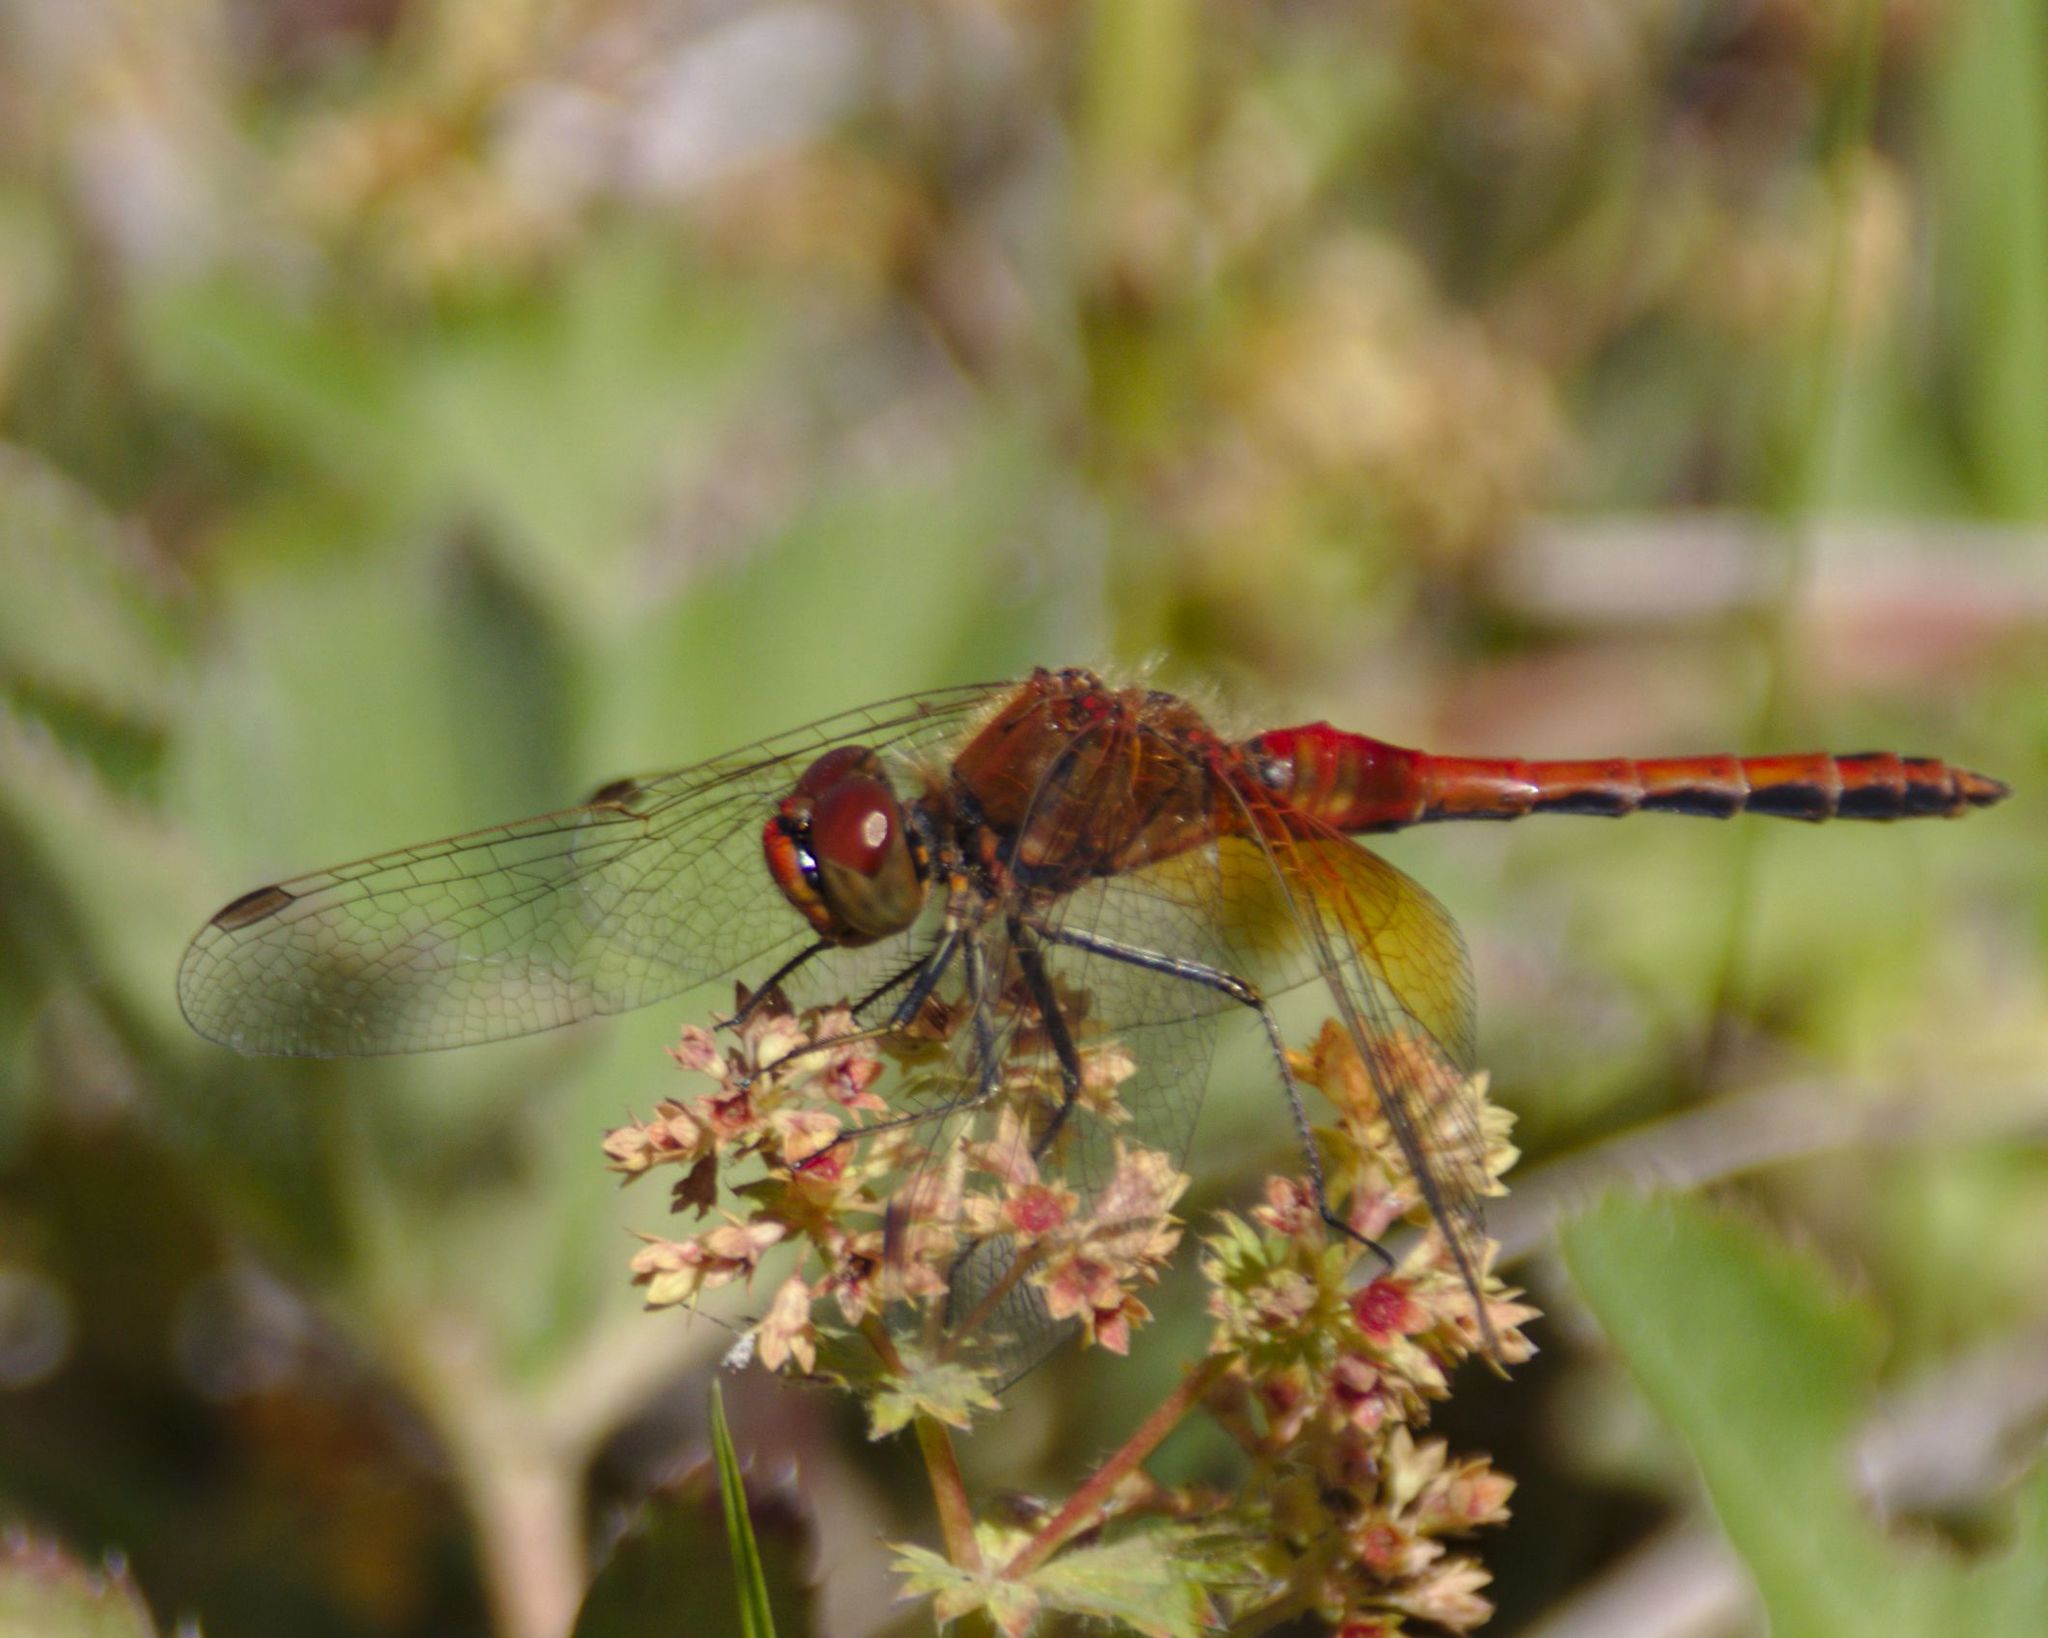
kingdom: Animalia
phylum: Arthropoda
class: Insecta
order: Odonata
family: Libellulidae
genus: Sympetrum
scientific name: Sympetrum flaveolum
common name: Yellow-winged darter
